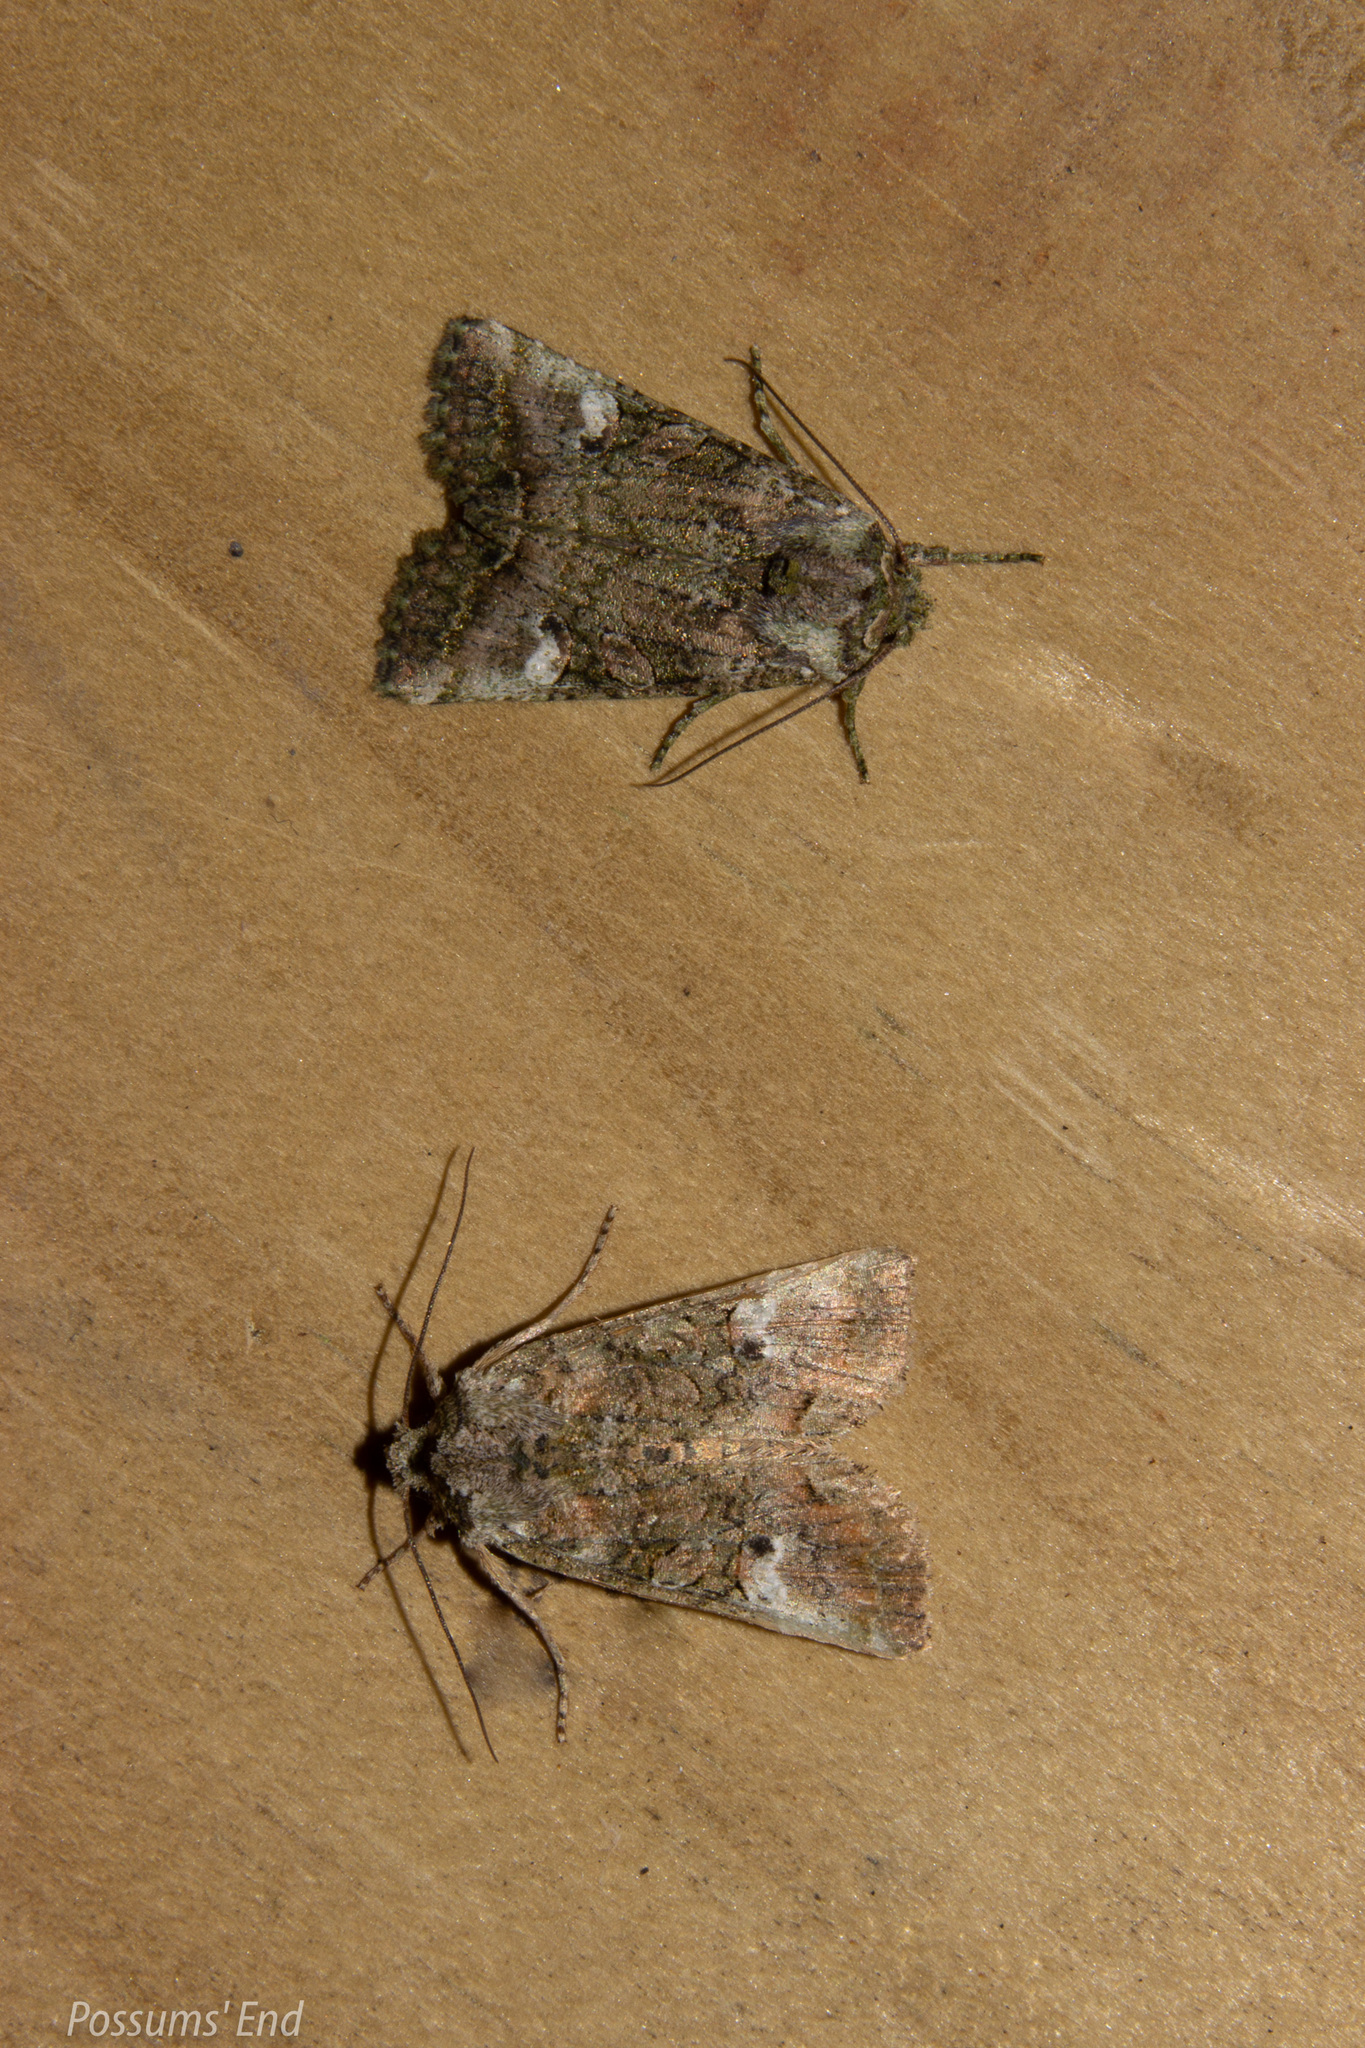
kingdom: Animalia
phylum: Arthropoda
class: Insecta
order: Lepidoptera
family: Noctuidae
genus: Meterana
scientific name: Meterana levis
